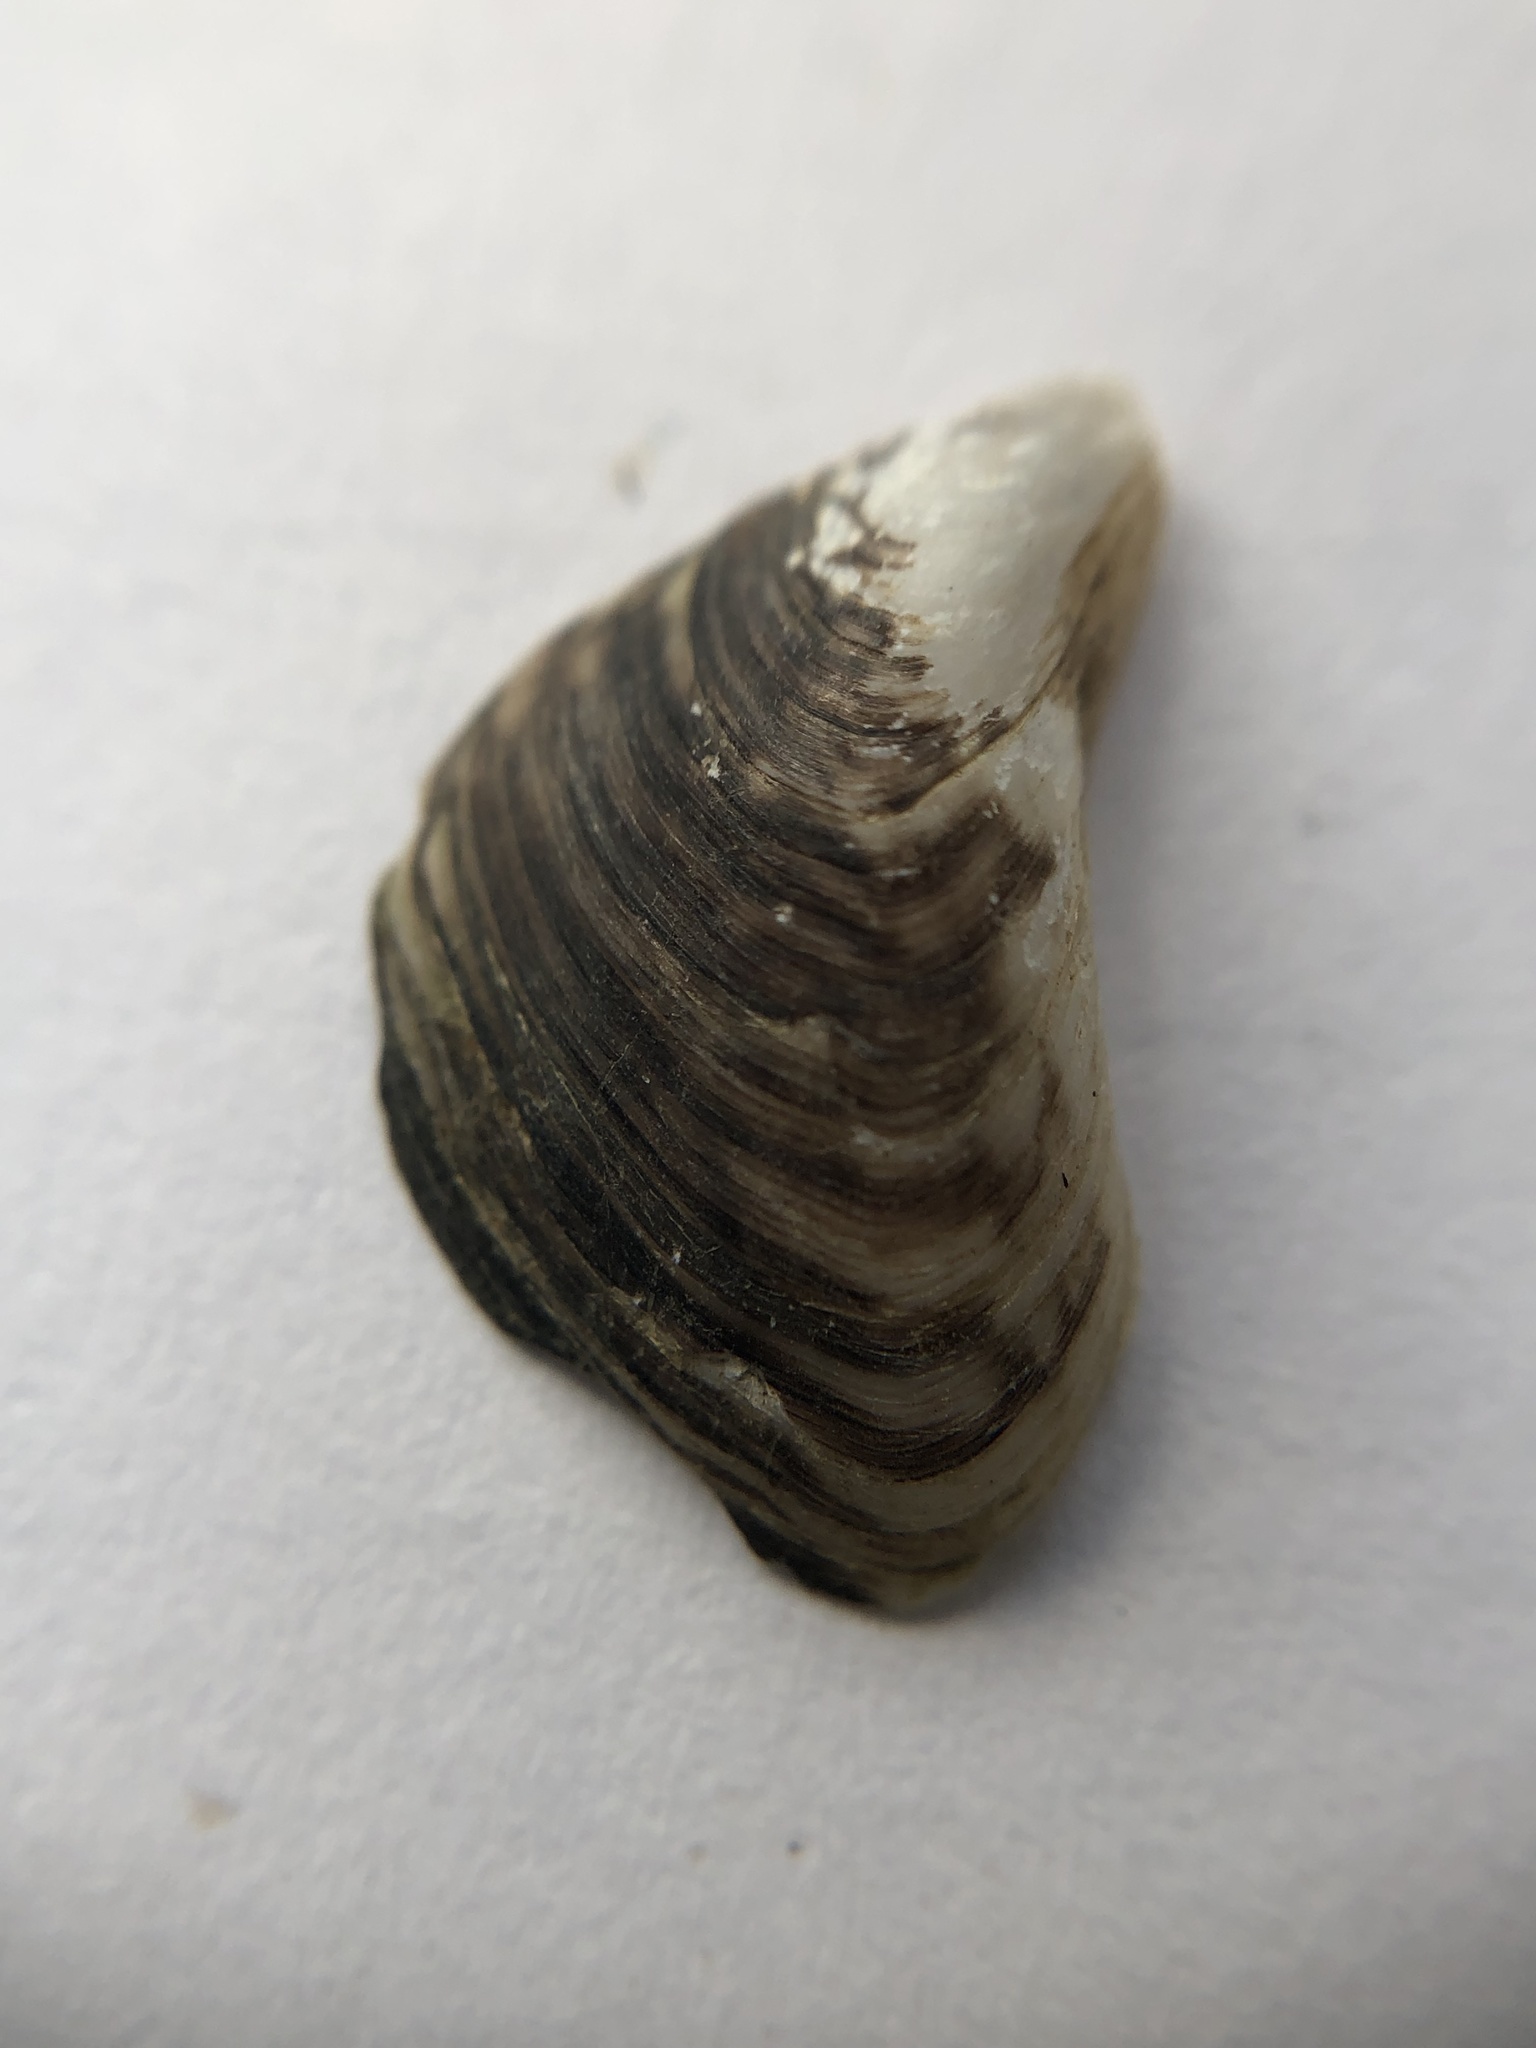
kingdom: Animalia
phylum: Mollusca
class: Bivalvia
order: Myida
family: Dreissenidae
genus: Dreissena
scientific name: Dreissena bugensis
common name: Quagga mussel
